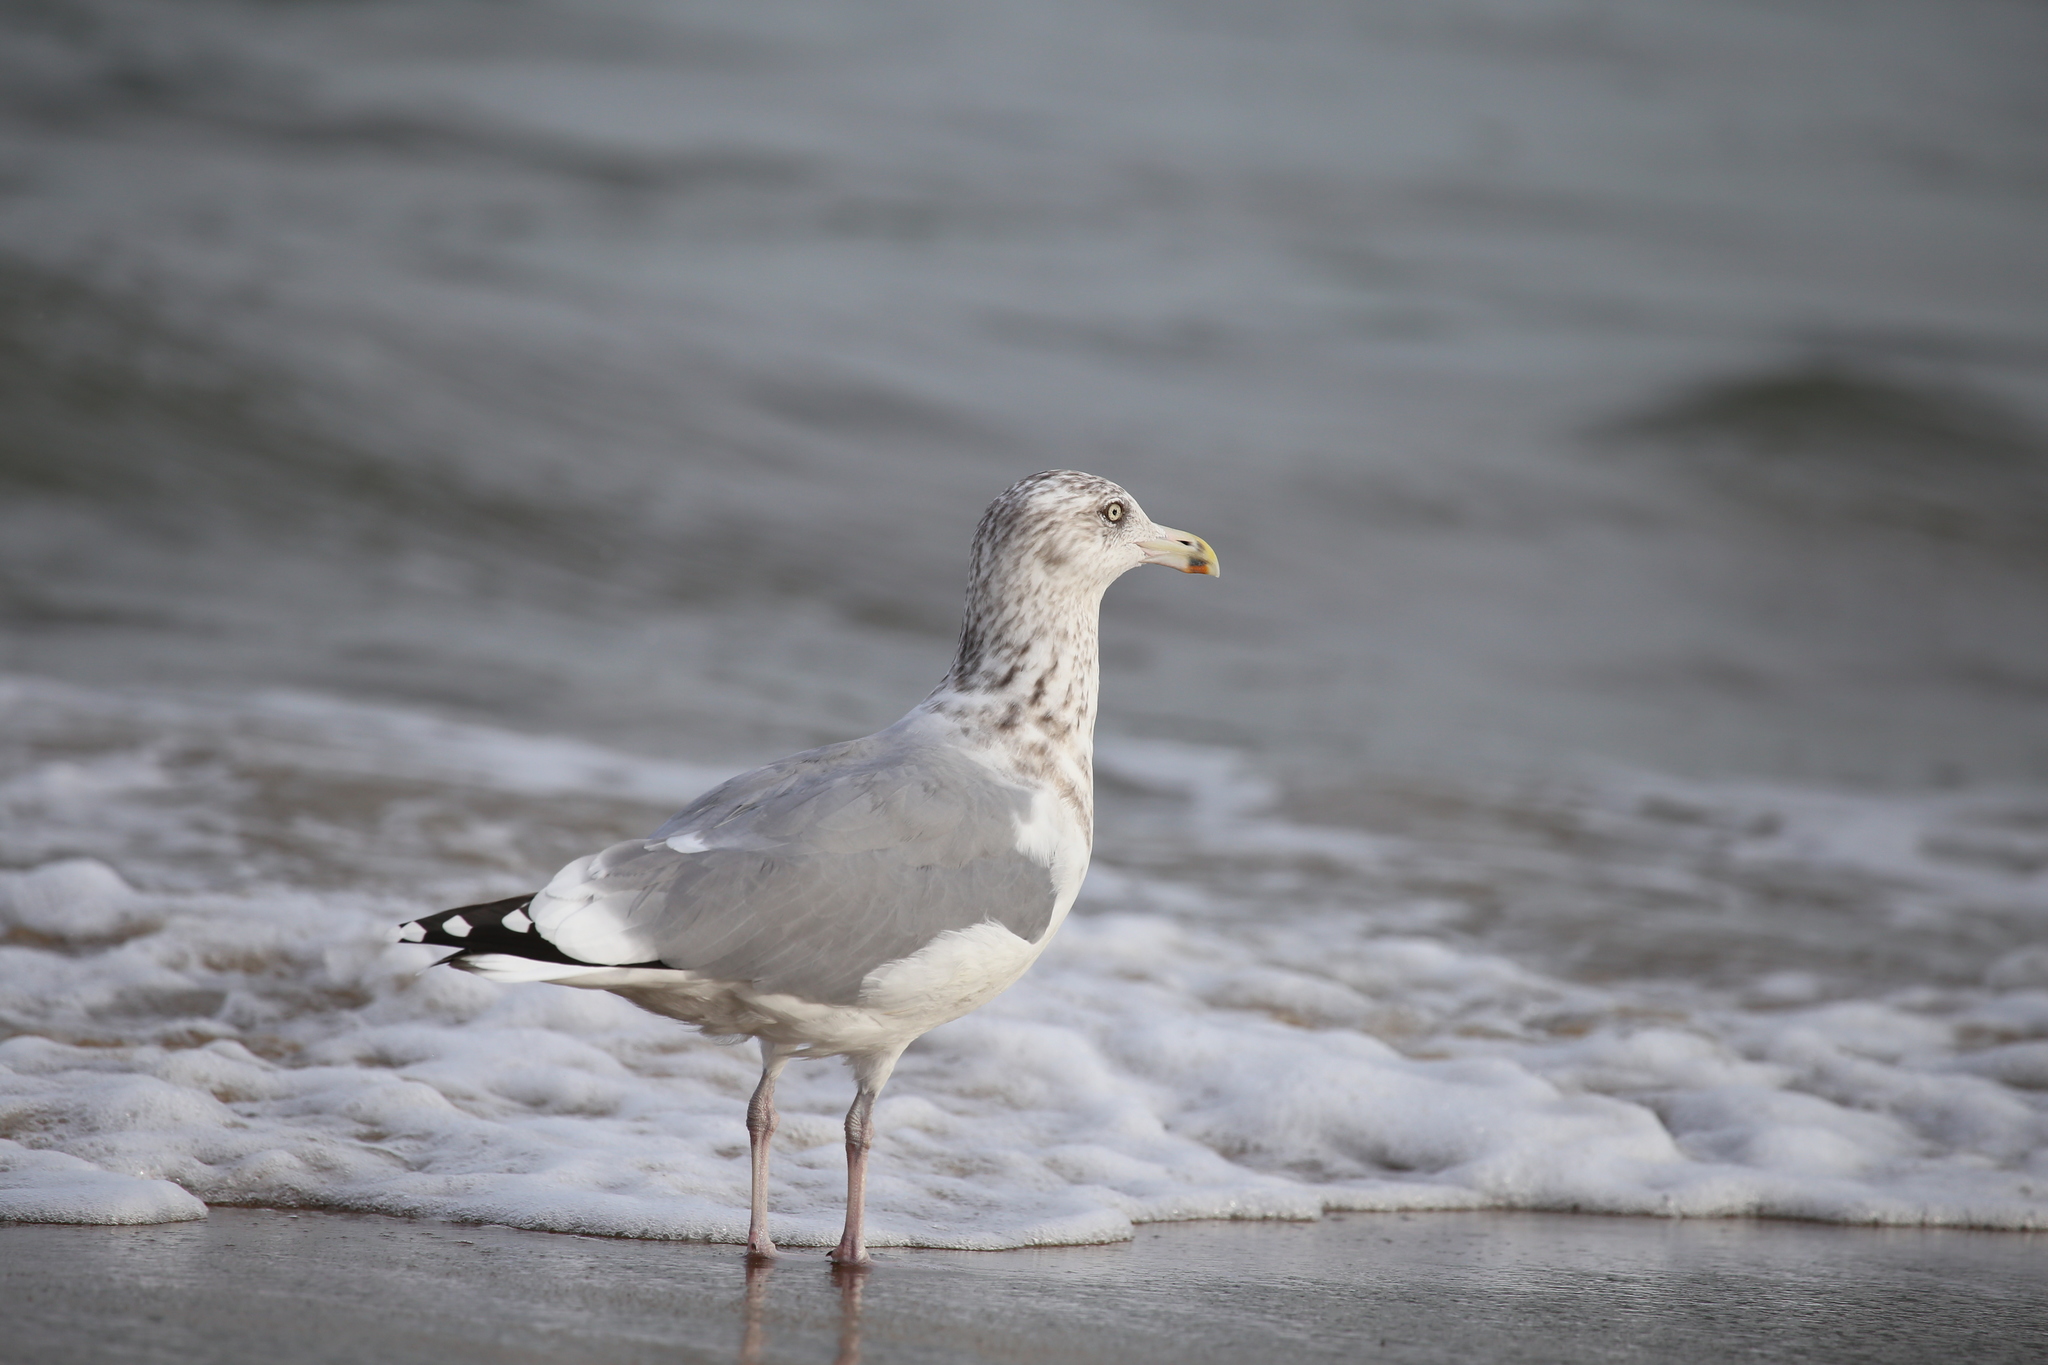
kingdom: Animalia
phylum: Chordata
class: Aves
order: Charadriiformes
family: Laridae
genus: Larus
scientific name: Larus argentatus
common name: Herring gull
